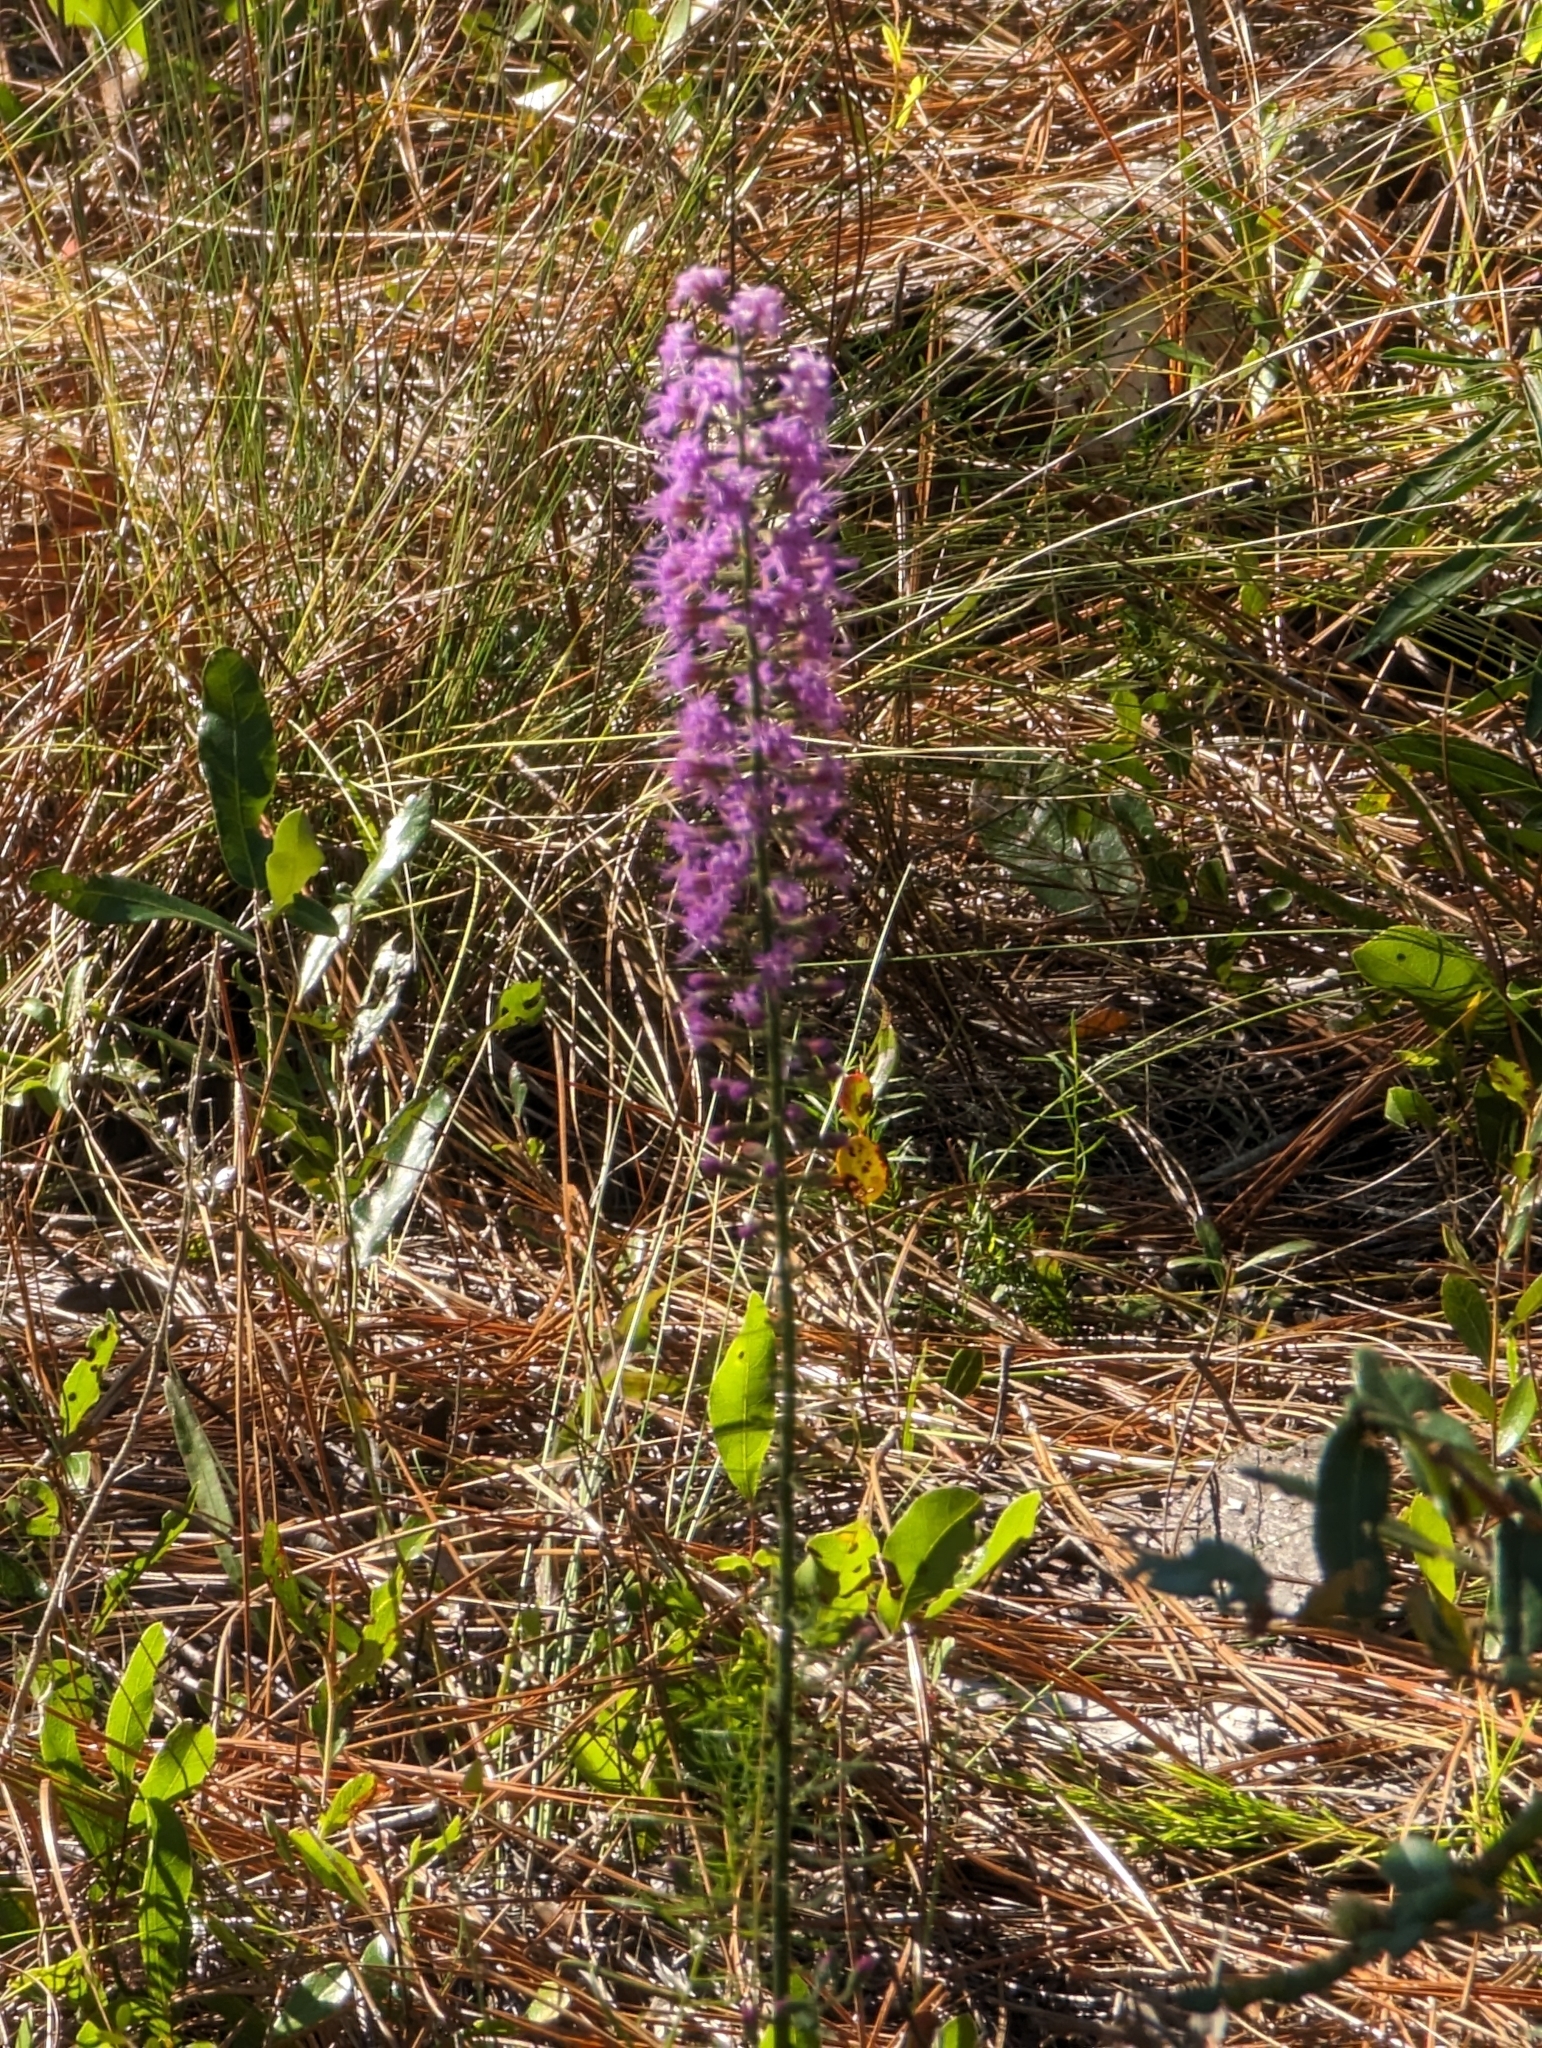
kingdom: Plantae
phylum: Tracheophyta
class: Magnoliopsida
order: Asterales
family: Asteraceae
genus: Liatris
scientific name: Liatris gracilis
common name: Slender gayfeather
